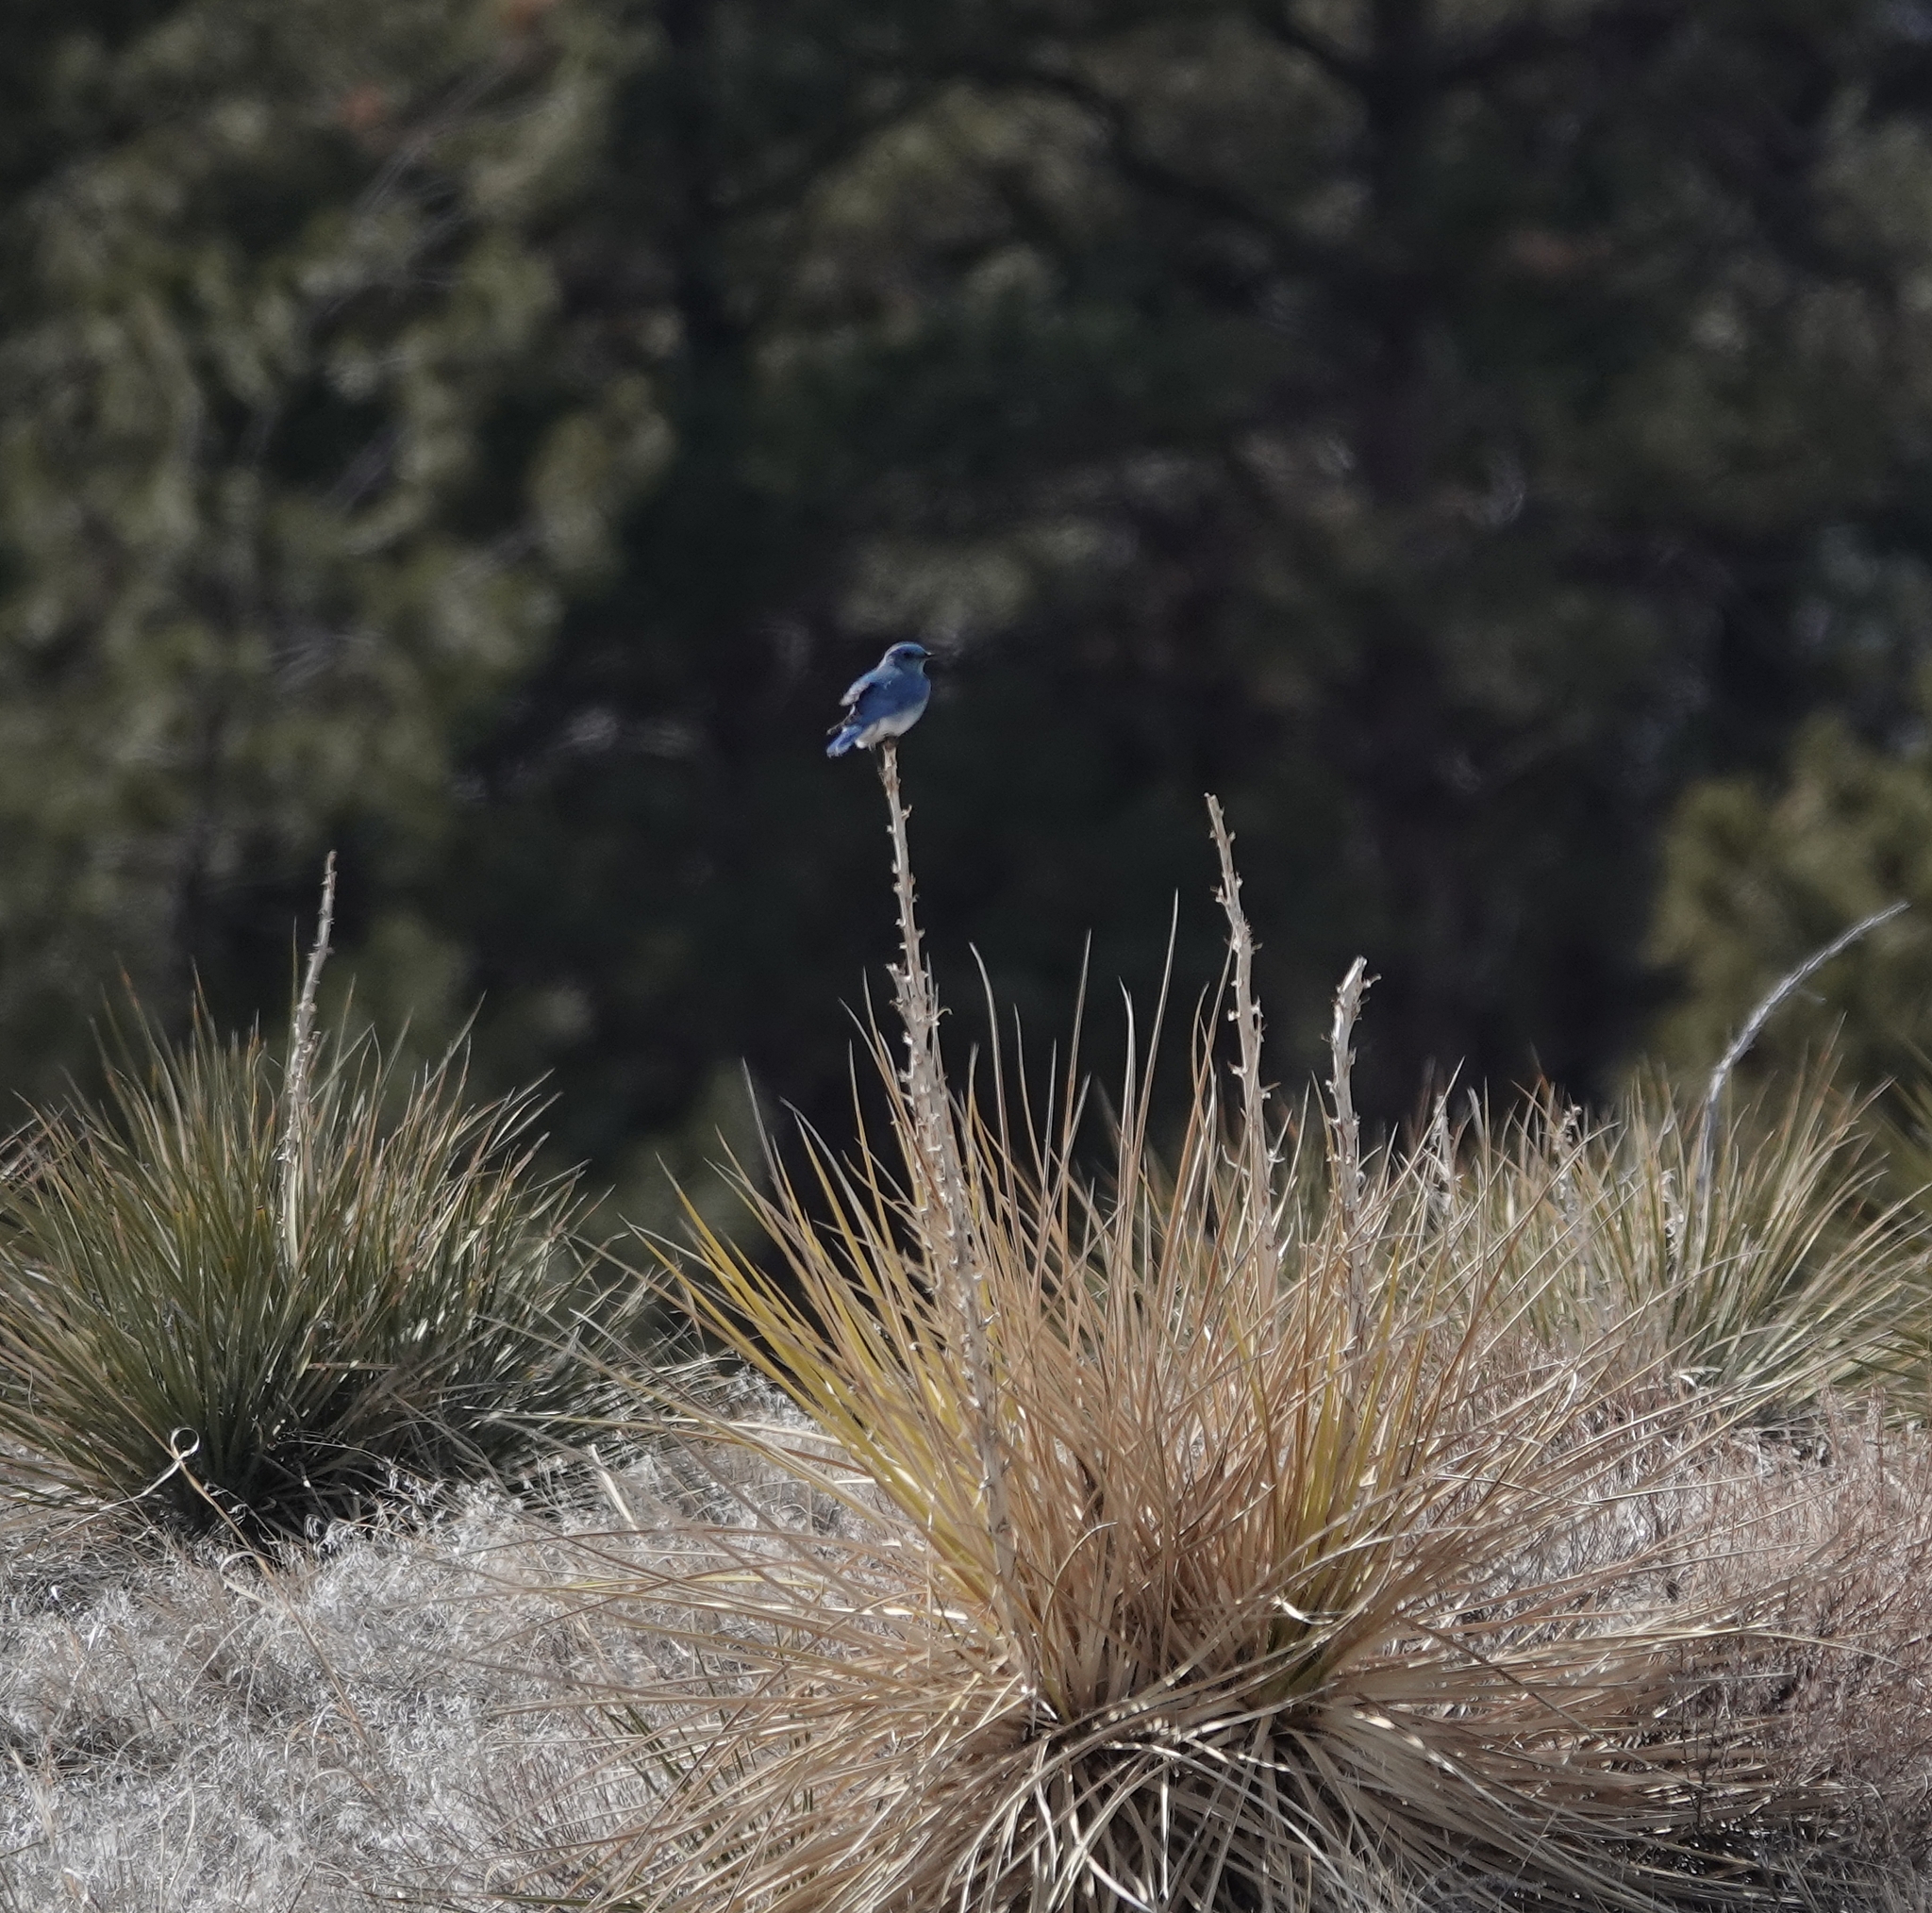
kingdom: Animalia
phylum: Chordata
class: Aves
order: Passeriformes
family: Turdidae
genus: Sialia
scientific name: Sialia currucoides
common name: Mountain bluebird
